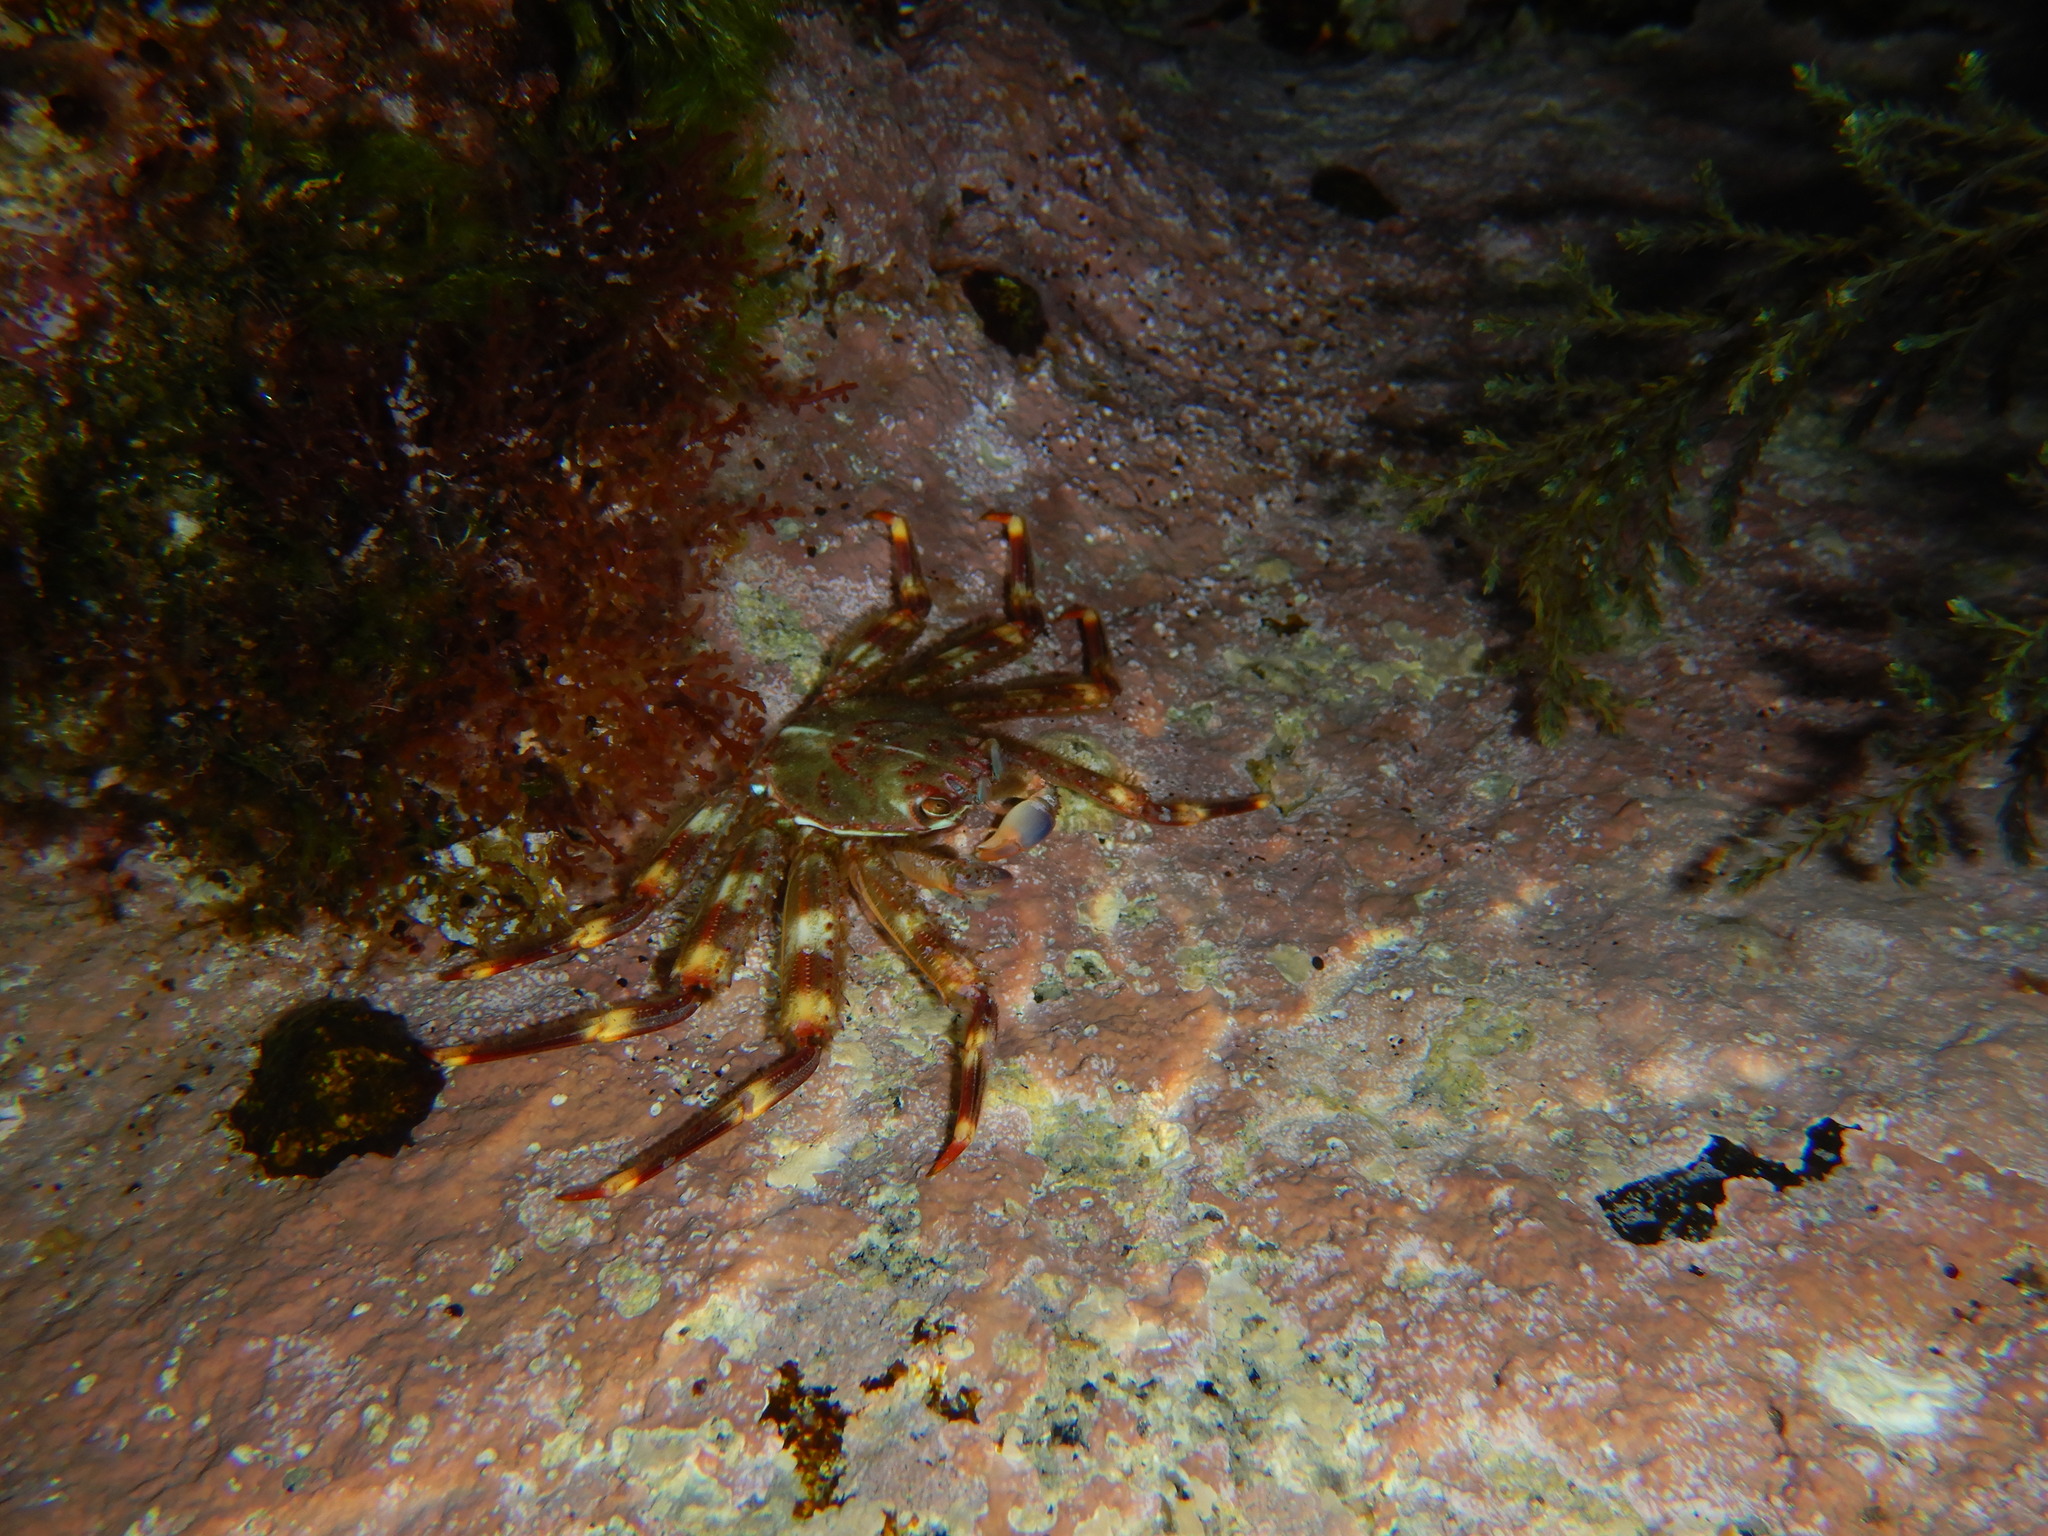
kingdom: Animalia
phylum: Arthropoda
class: Malacostraca
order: Decapoda
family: Percnidae
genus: Percnon
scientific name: Percnon gibbesi
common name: Nimble spray crab
